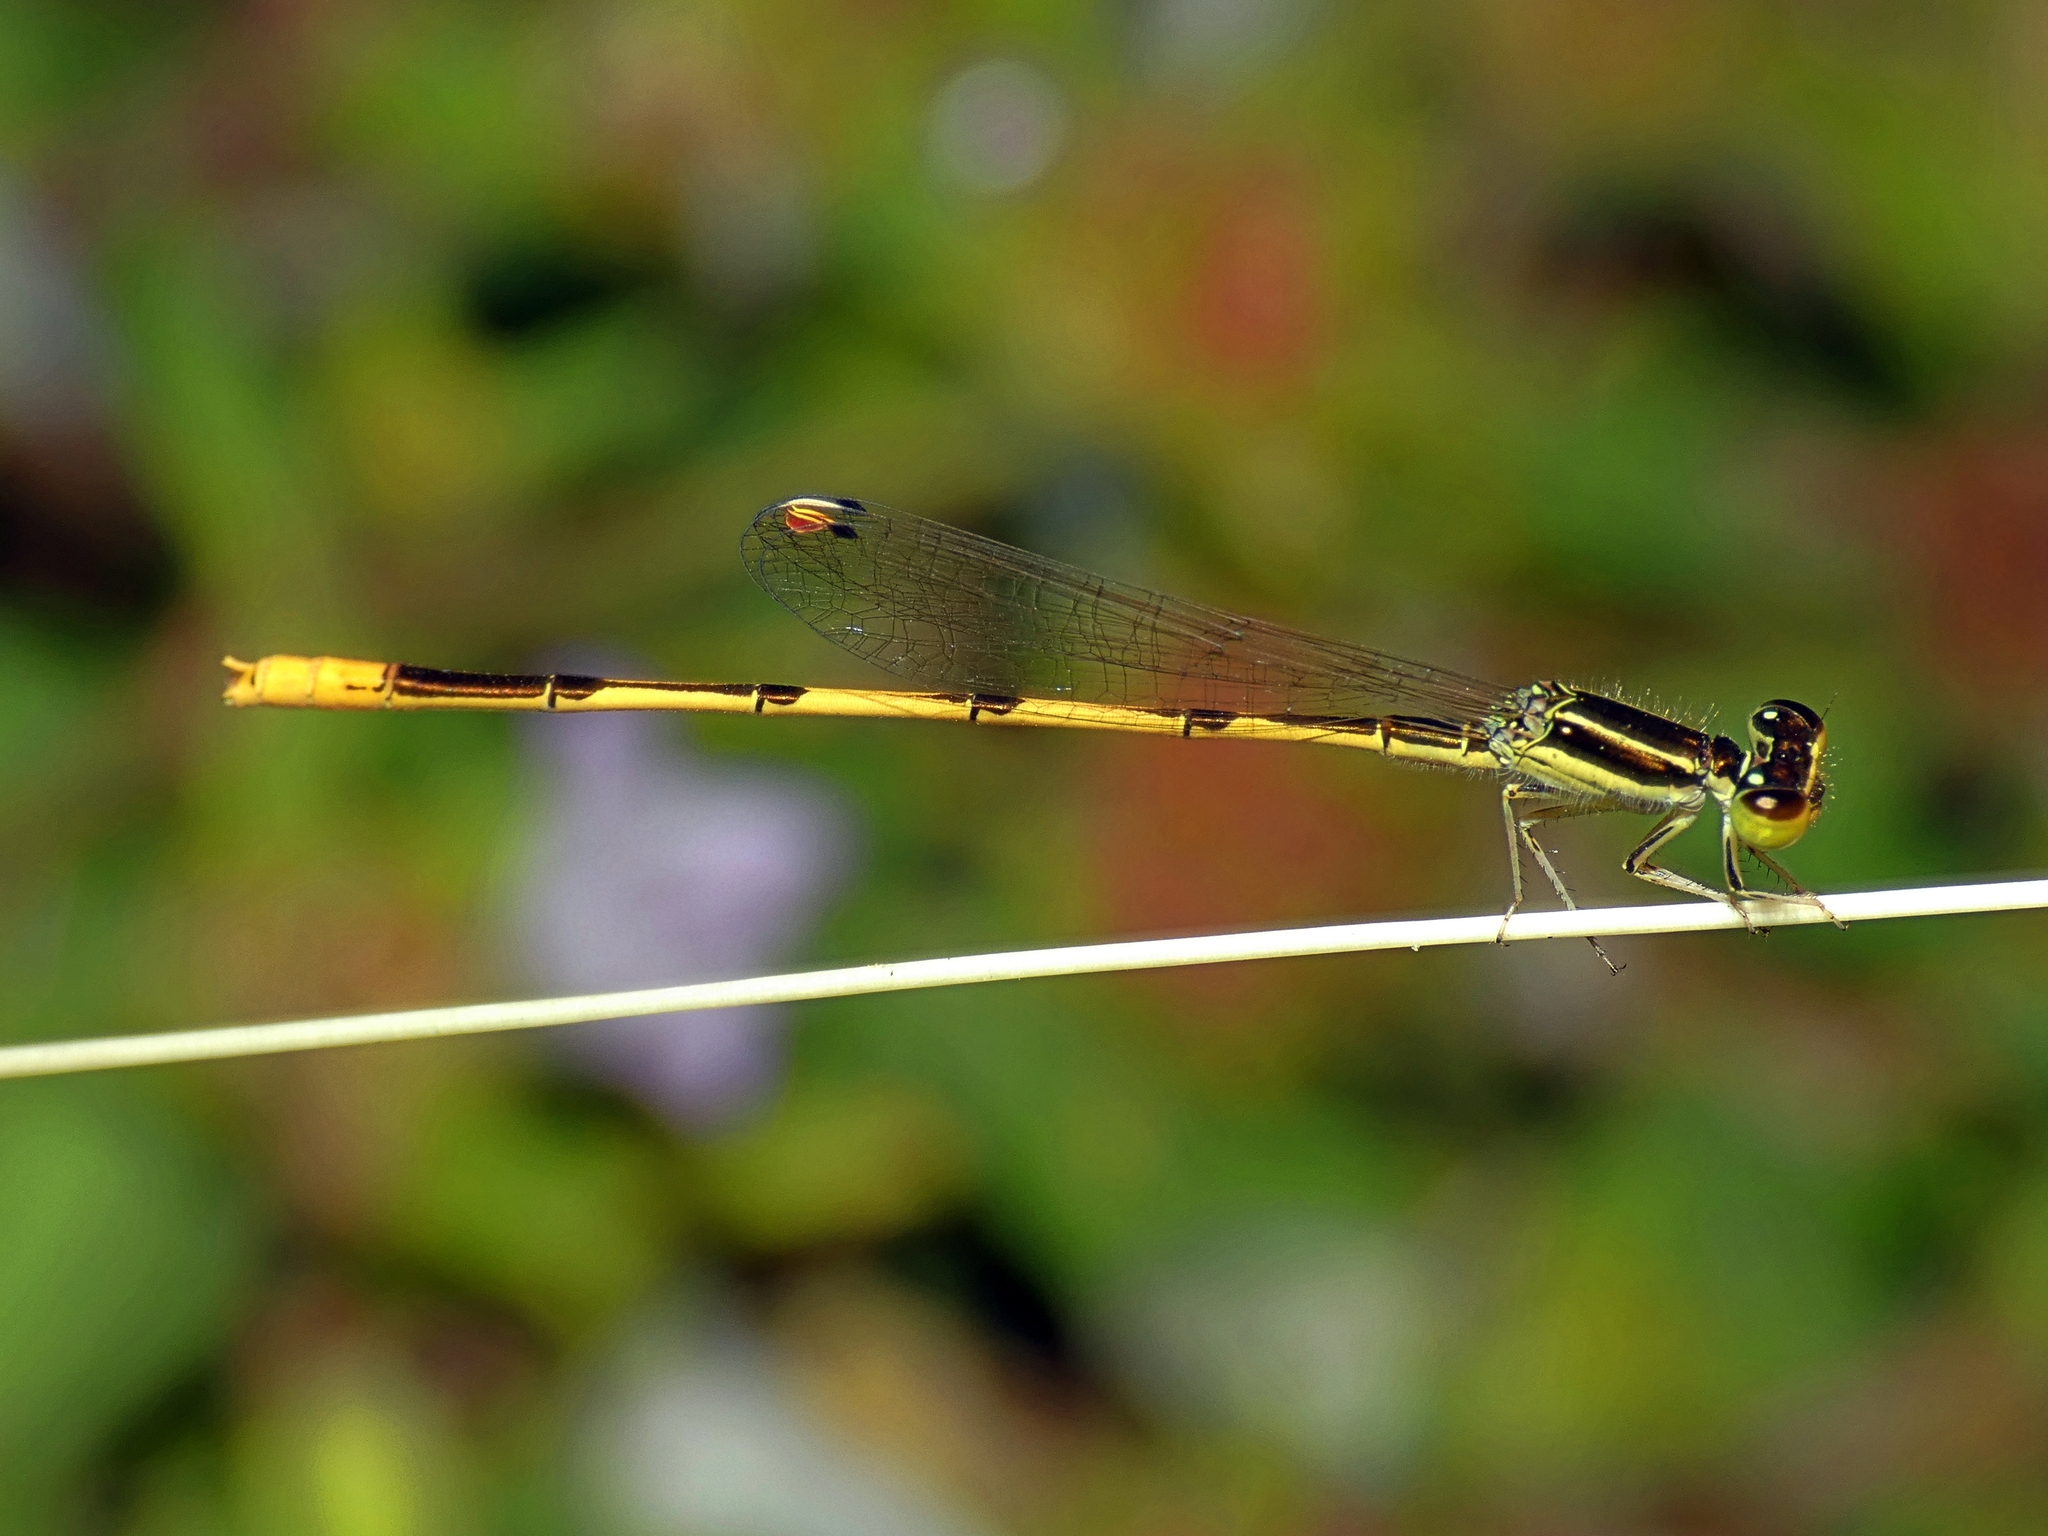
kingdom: Animalia
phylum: Arthropoda
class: Insecta
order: Odonata
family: Coenagrionidae
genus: Ischnura
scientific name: Ischnura hastata
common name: Citrine forktail
